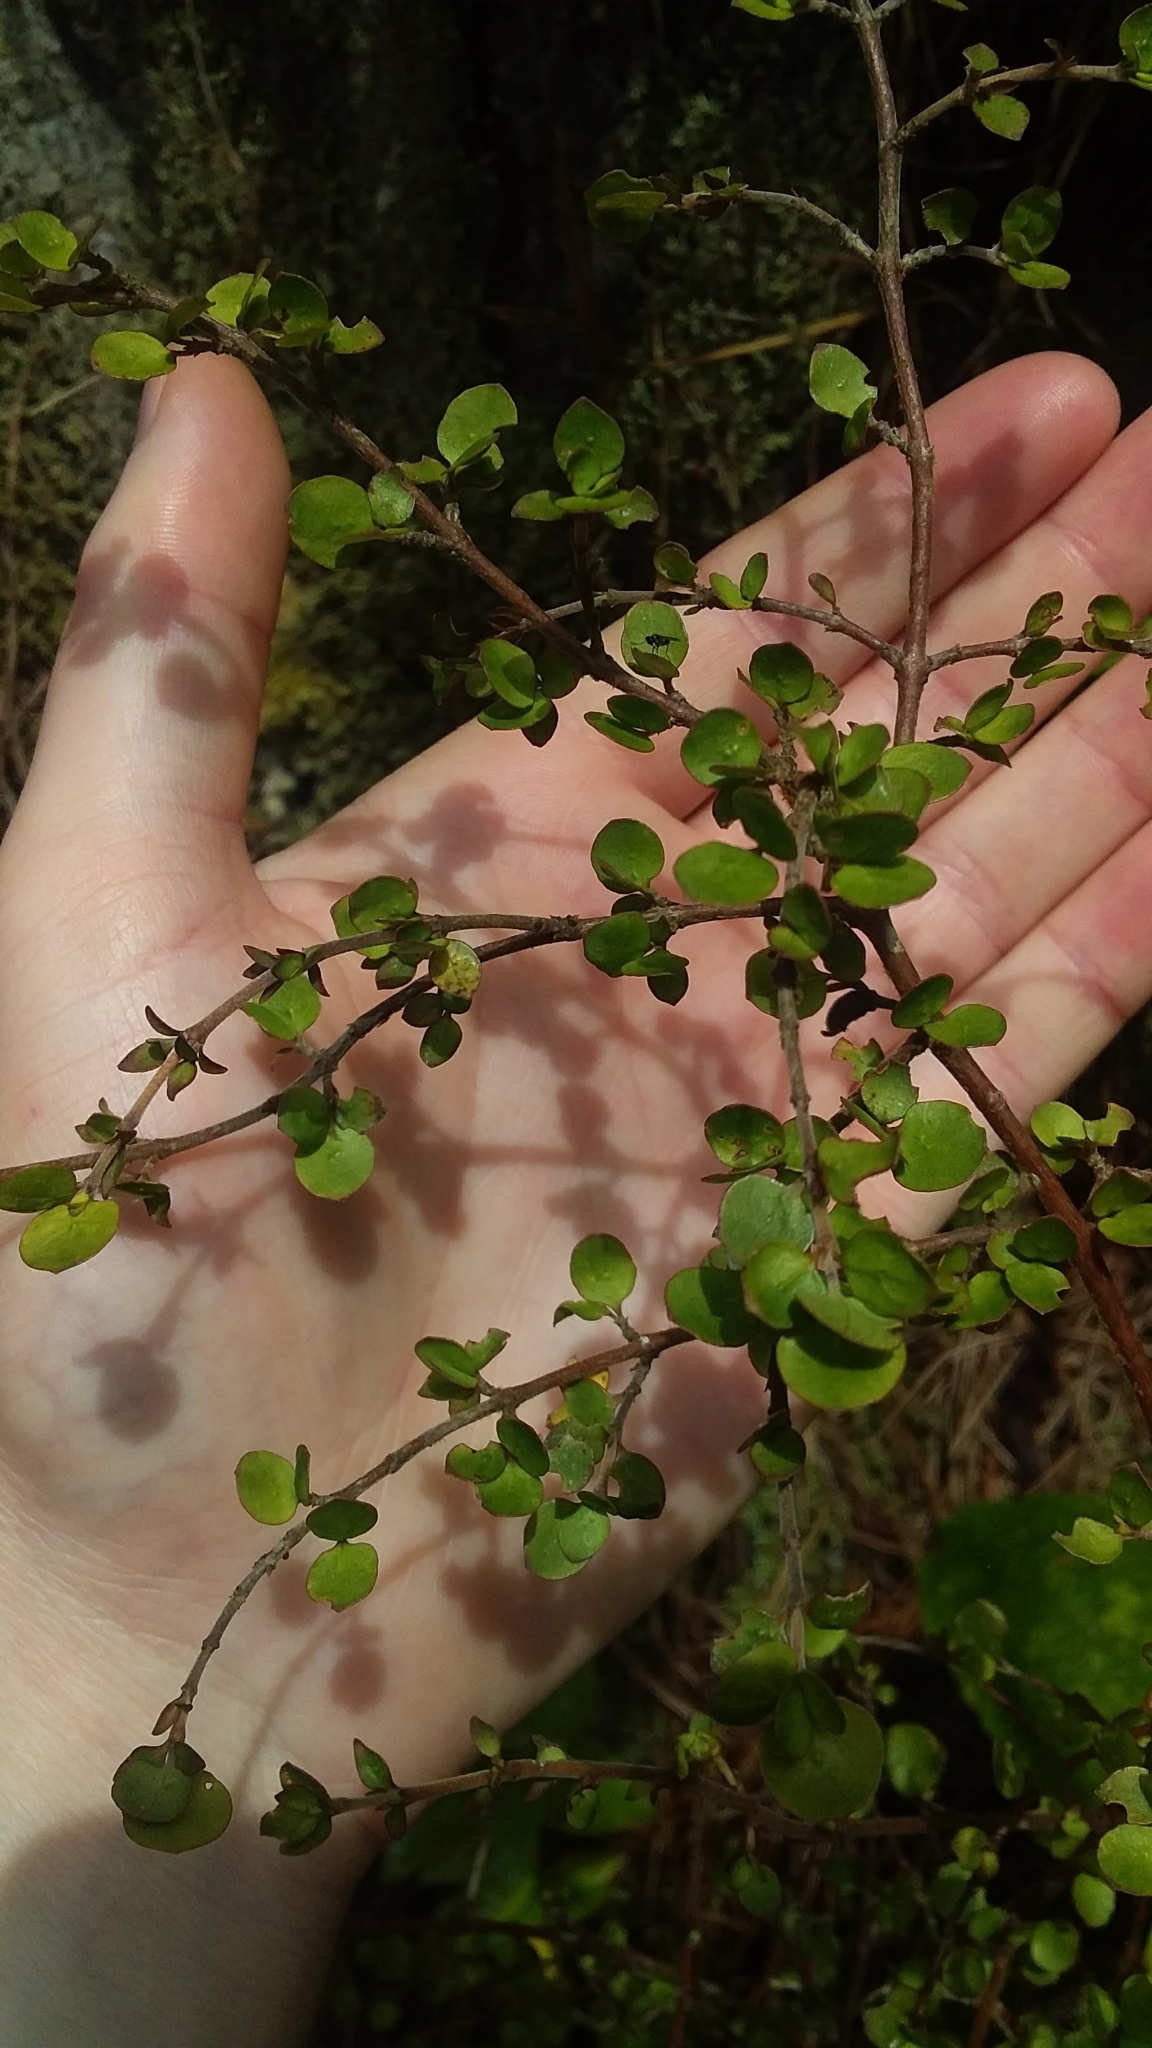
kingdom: Plantae
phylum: Tracheophyta
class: Magnoliopsida
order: Gentianales
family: Rubiaceae
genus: Coprosma
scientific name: Coprosma rhamnoides
